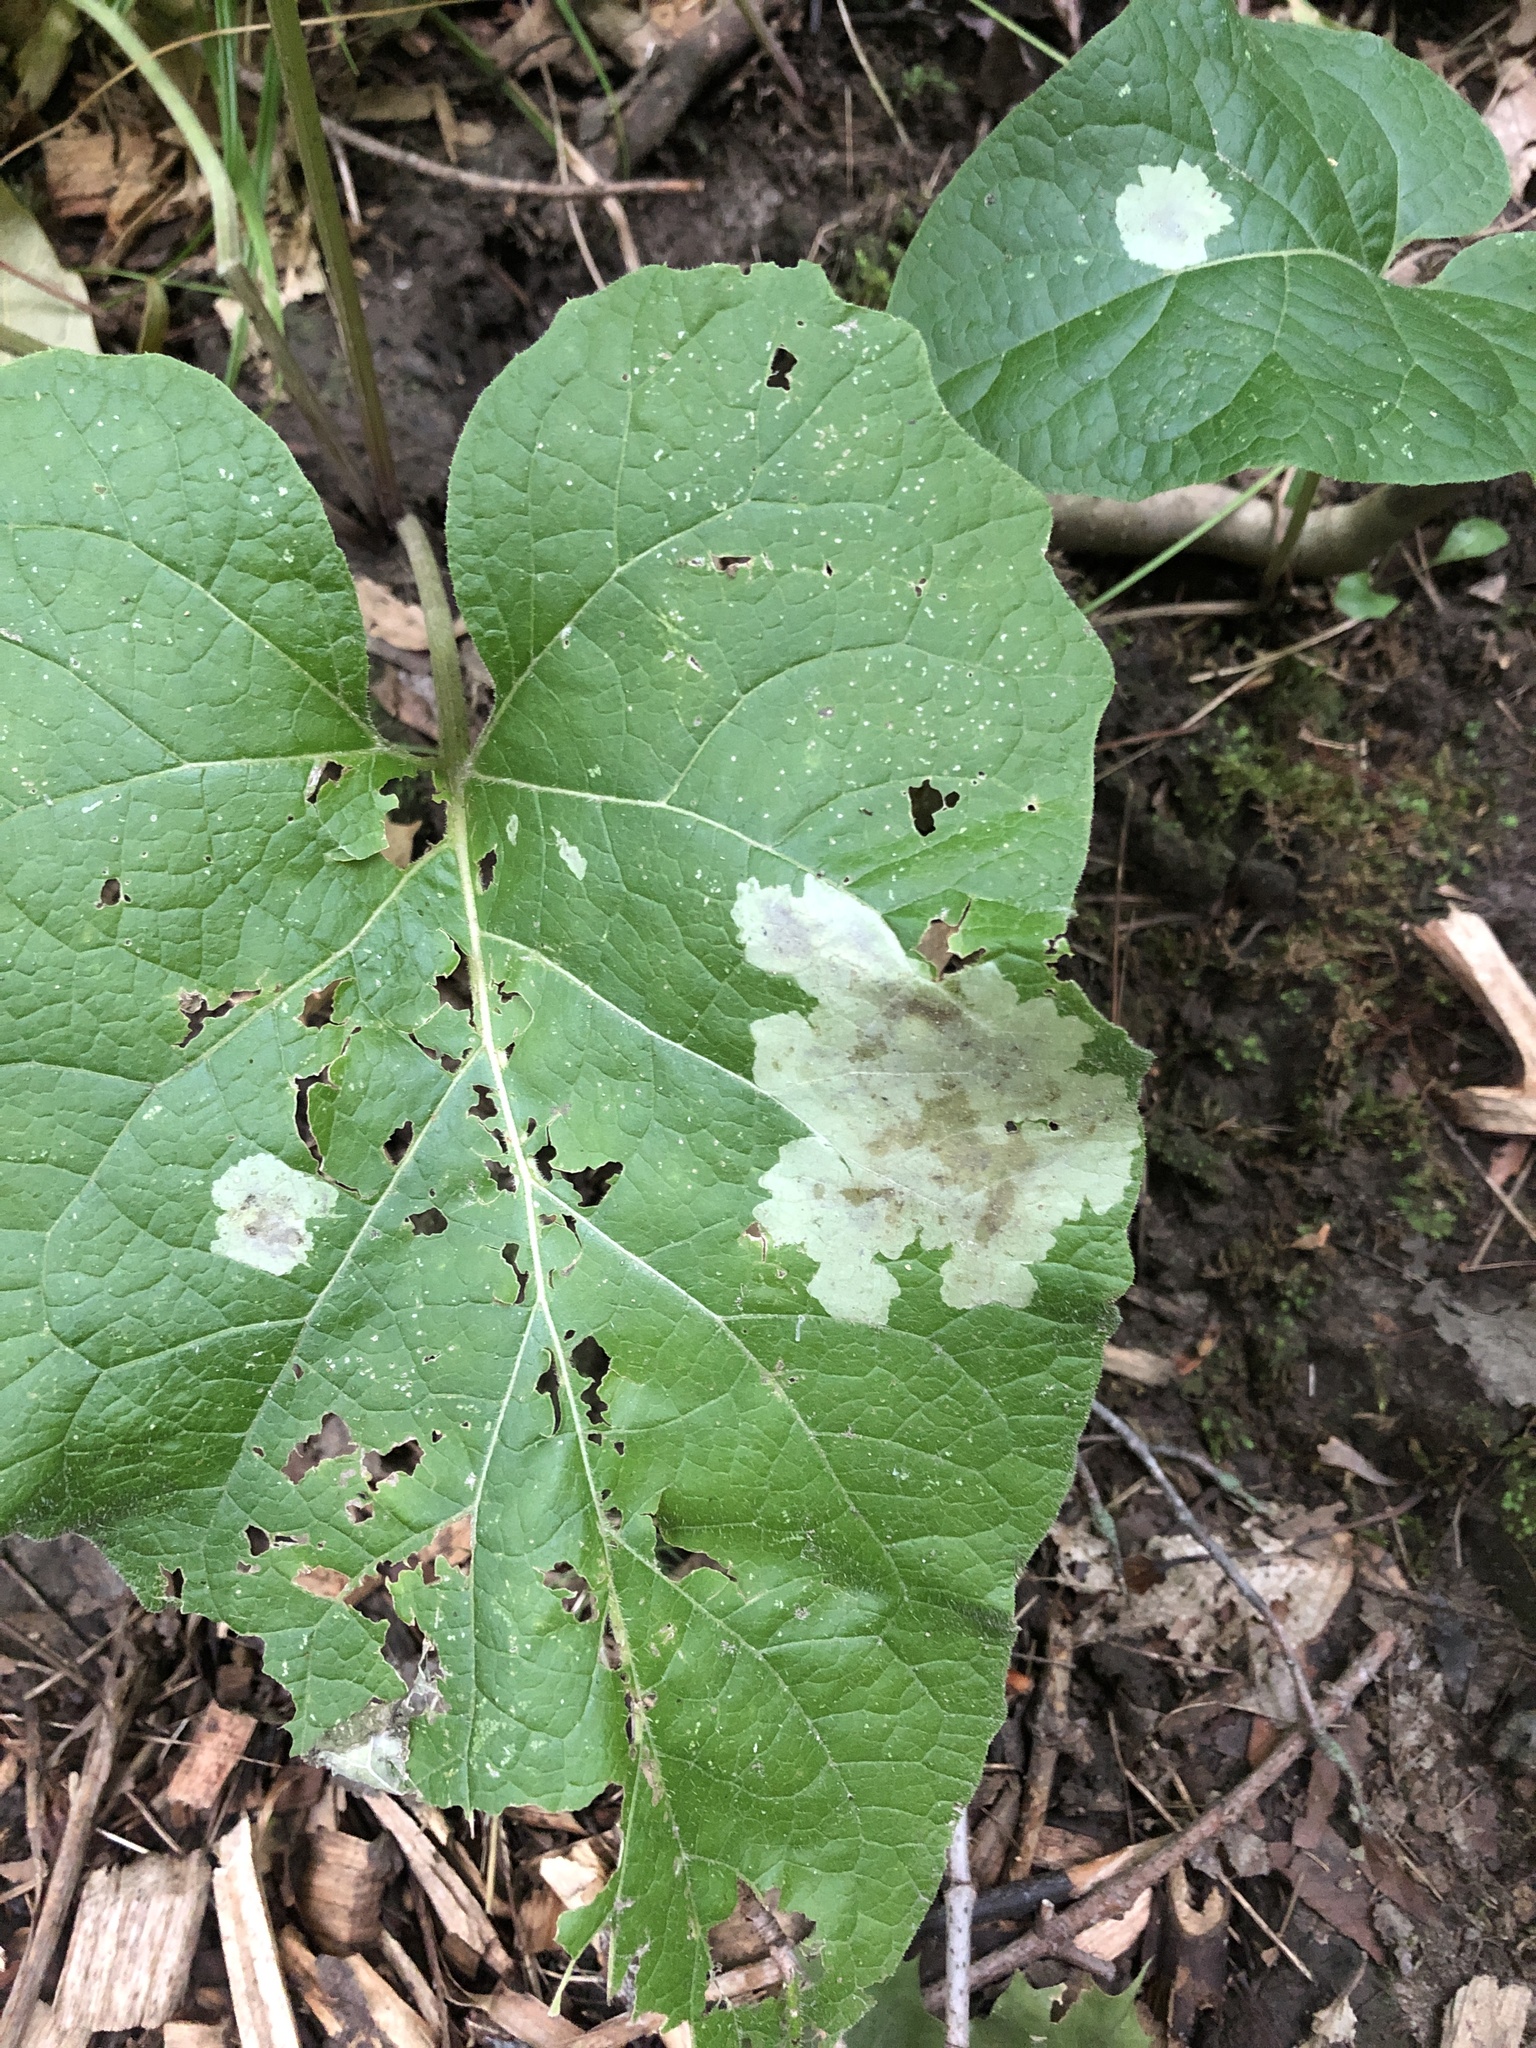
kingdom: Animalia
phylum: Arthropoda
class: Insecta
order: Diptera
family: Agromyzidae
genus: Calycomyza
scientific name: Calycomyza flavinotum
